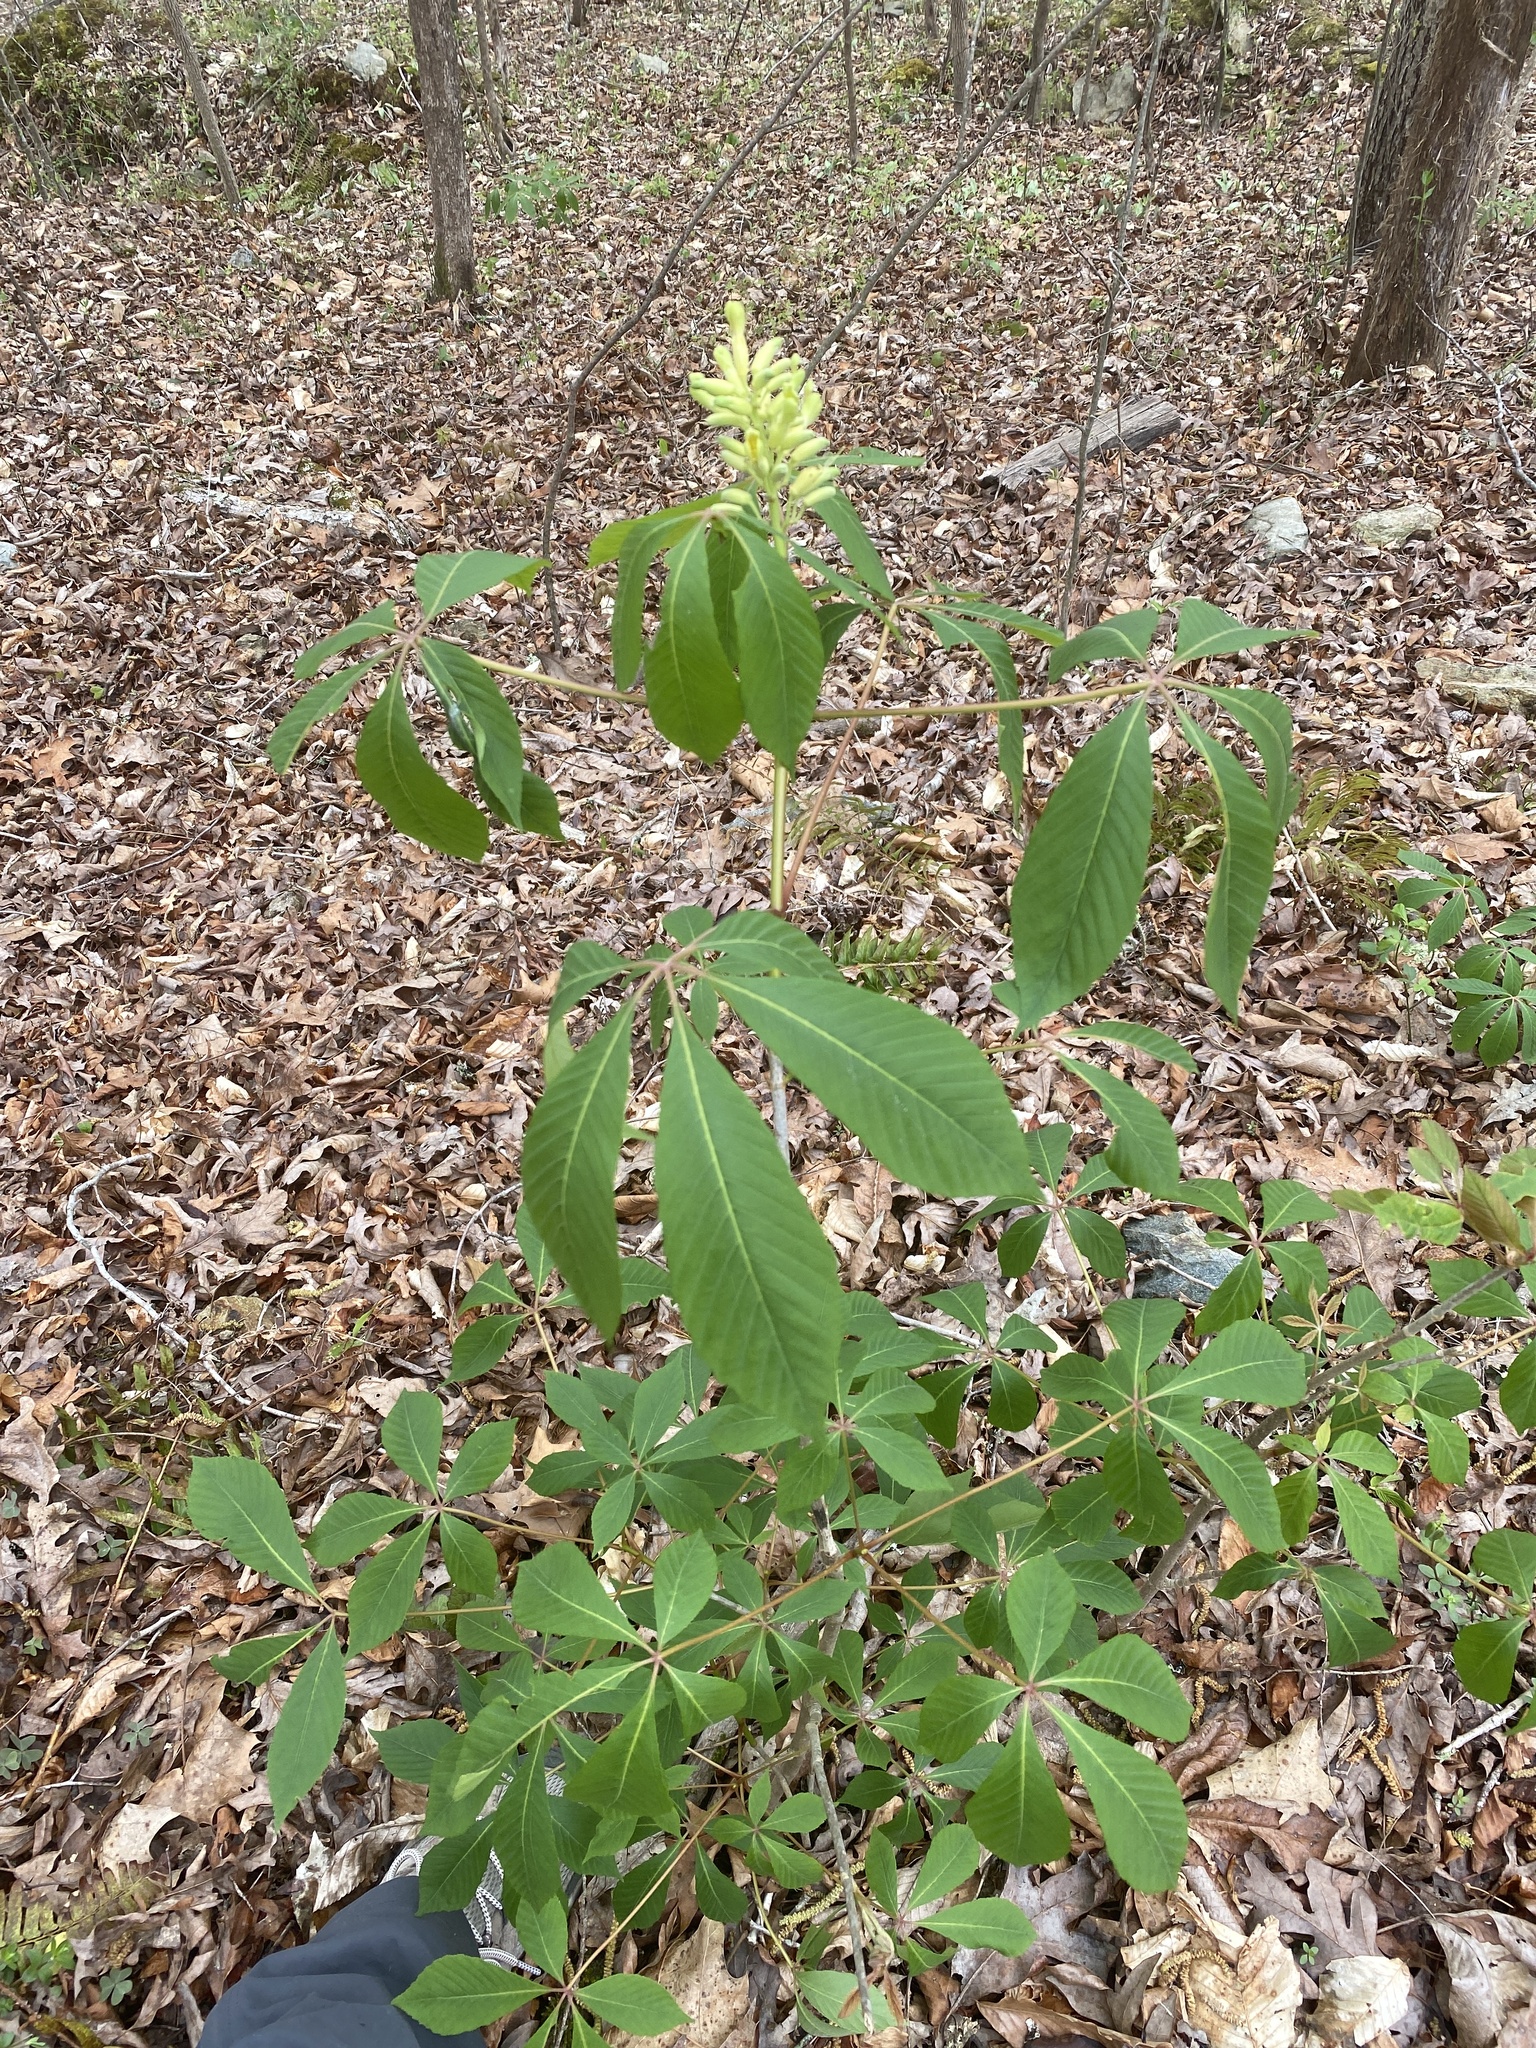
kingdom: Plantae
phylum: Tracheophyta
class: Magnoliopsida
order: Sapindales
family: Sapindaceae
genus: Aesculus
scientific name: Aesculus sylvatica
